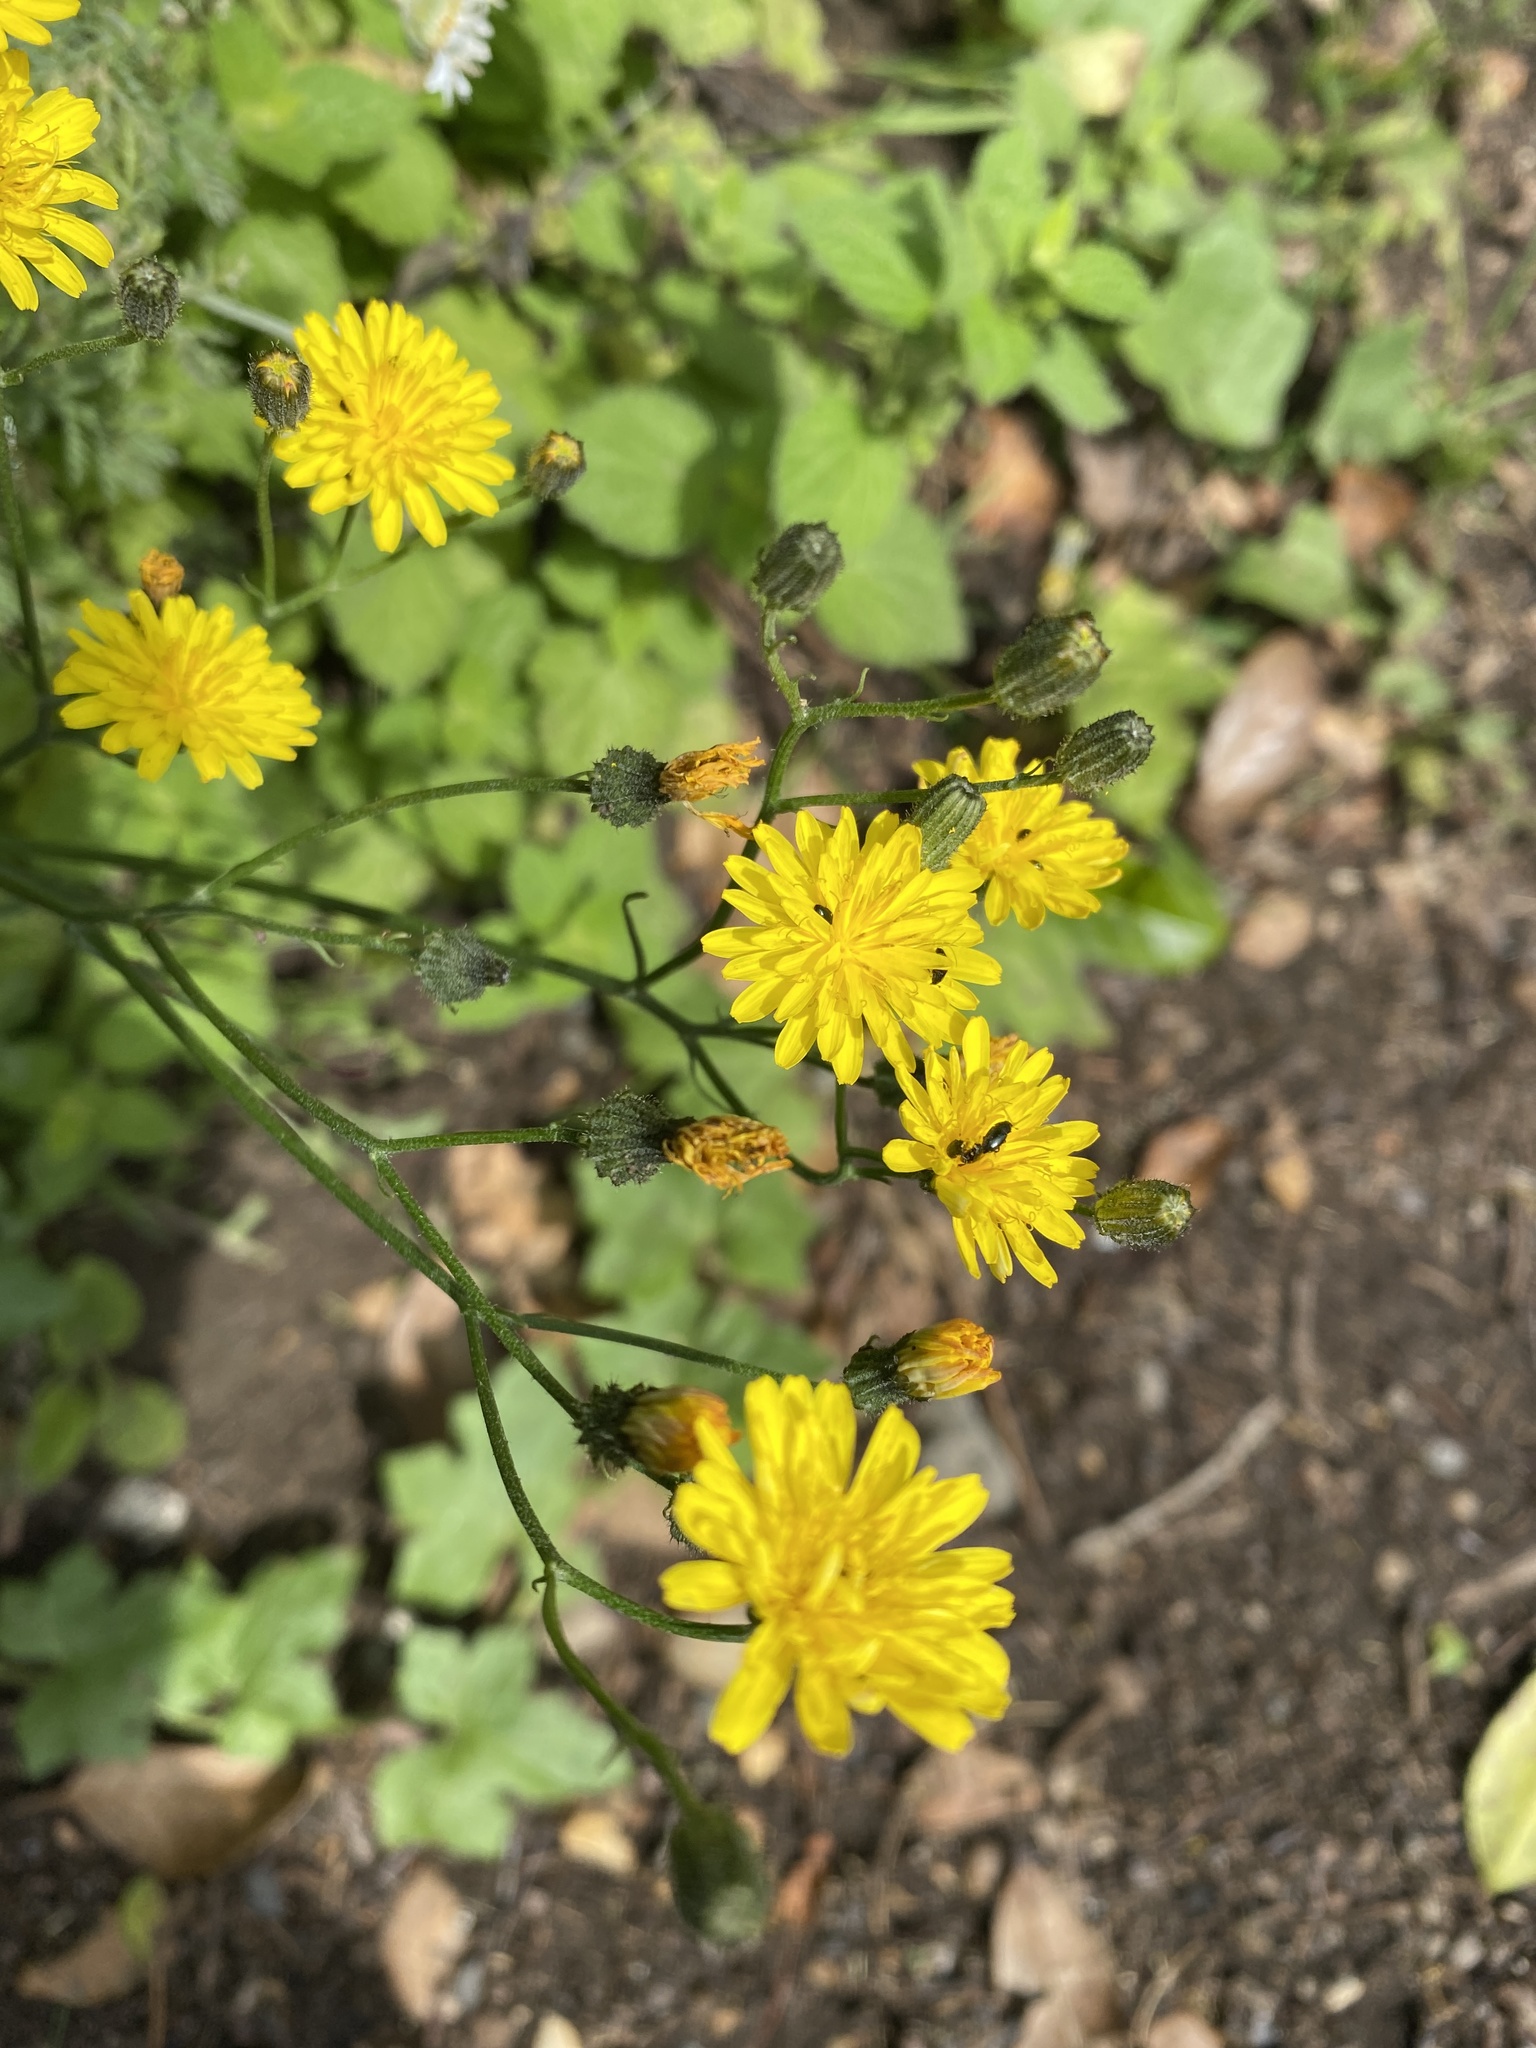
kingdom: Plantae
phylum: Tracheophyta
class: Magnoliopsida
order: Asterales
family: Asteraceae
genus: Crepis
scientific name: Crepis capillaris
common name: Smooth hawksbeard
